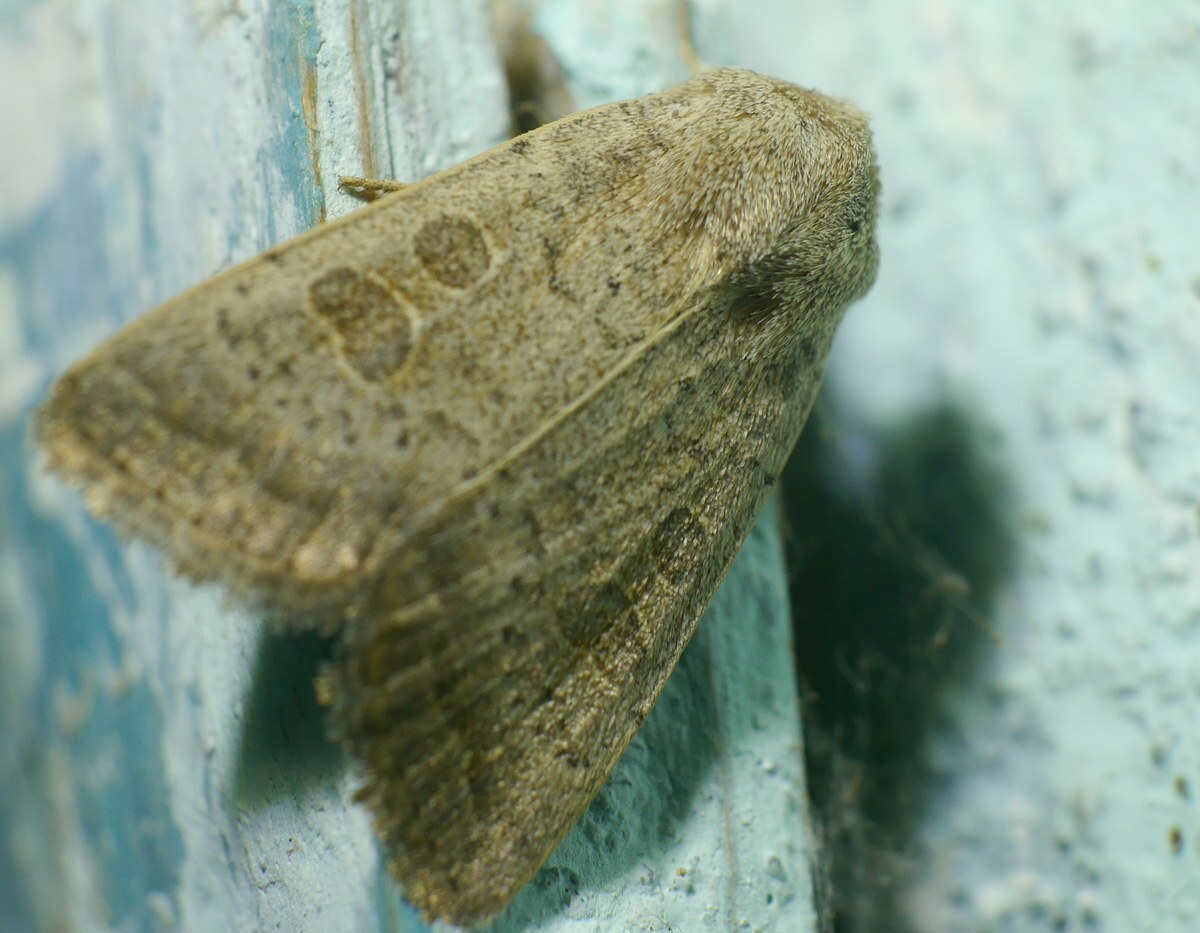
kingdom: Animalia
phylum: Arthropoda
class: Insecta
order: Lepidoptera
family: Noctuidae
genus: Hoplodrina
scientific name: Hoplodrina ambigua
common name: Vine's rustic
